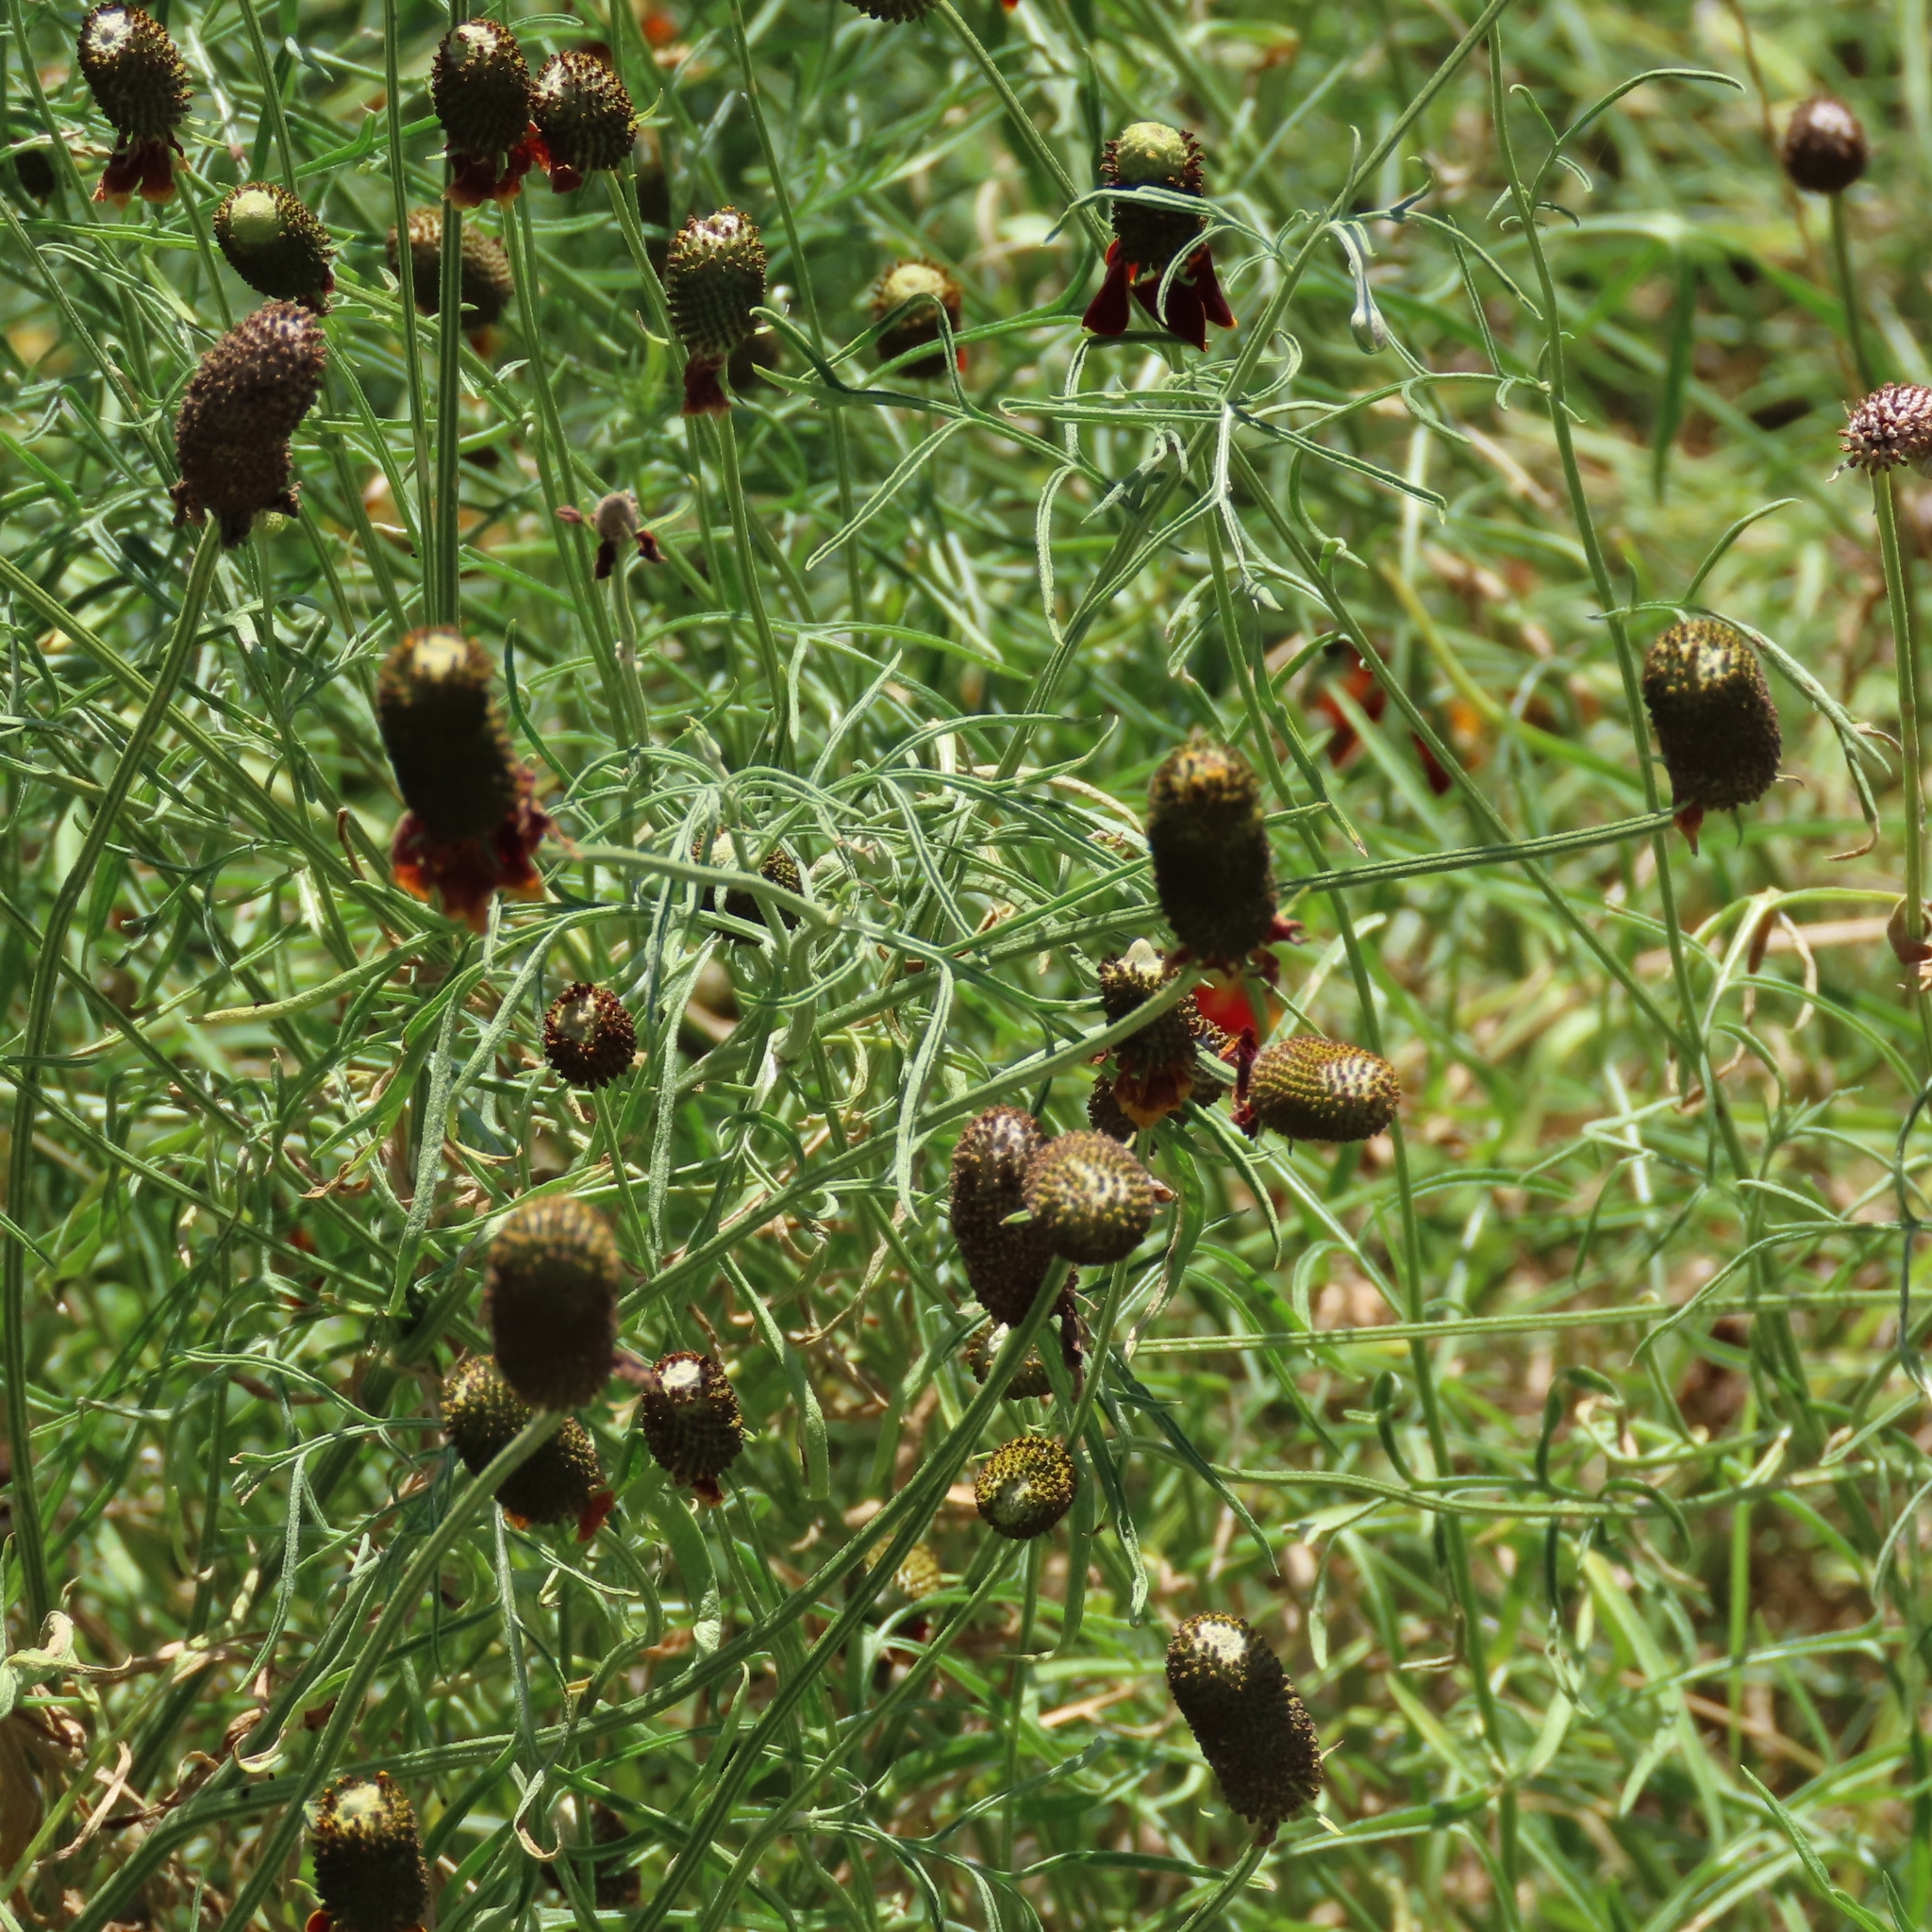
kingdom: Plantae
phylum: Tracheophyta
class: Magnoliopsida
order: Asterales
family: Asteraceae
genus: Ratibida
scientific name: Ratibida columnifera
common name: Prairie coneflower
